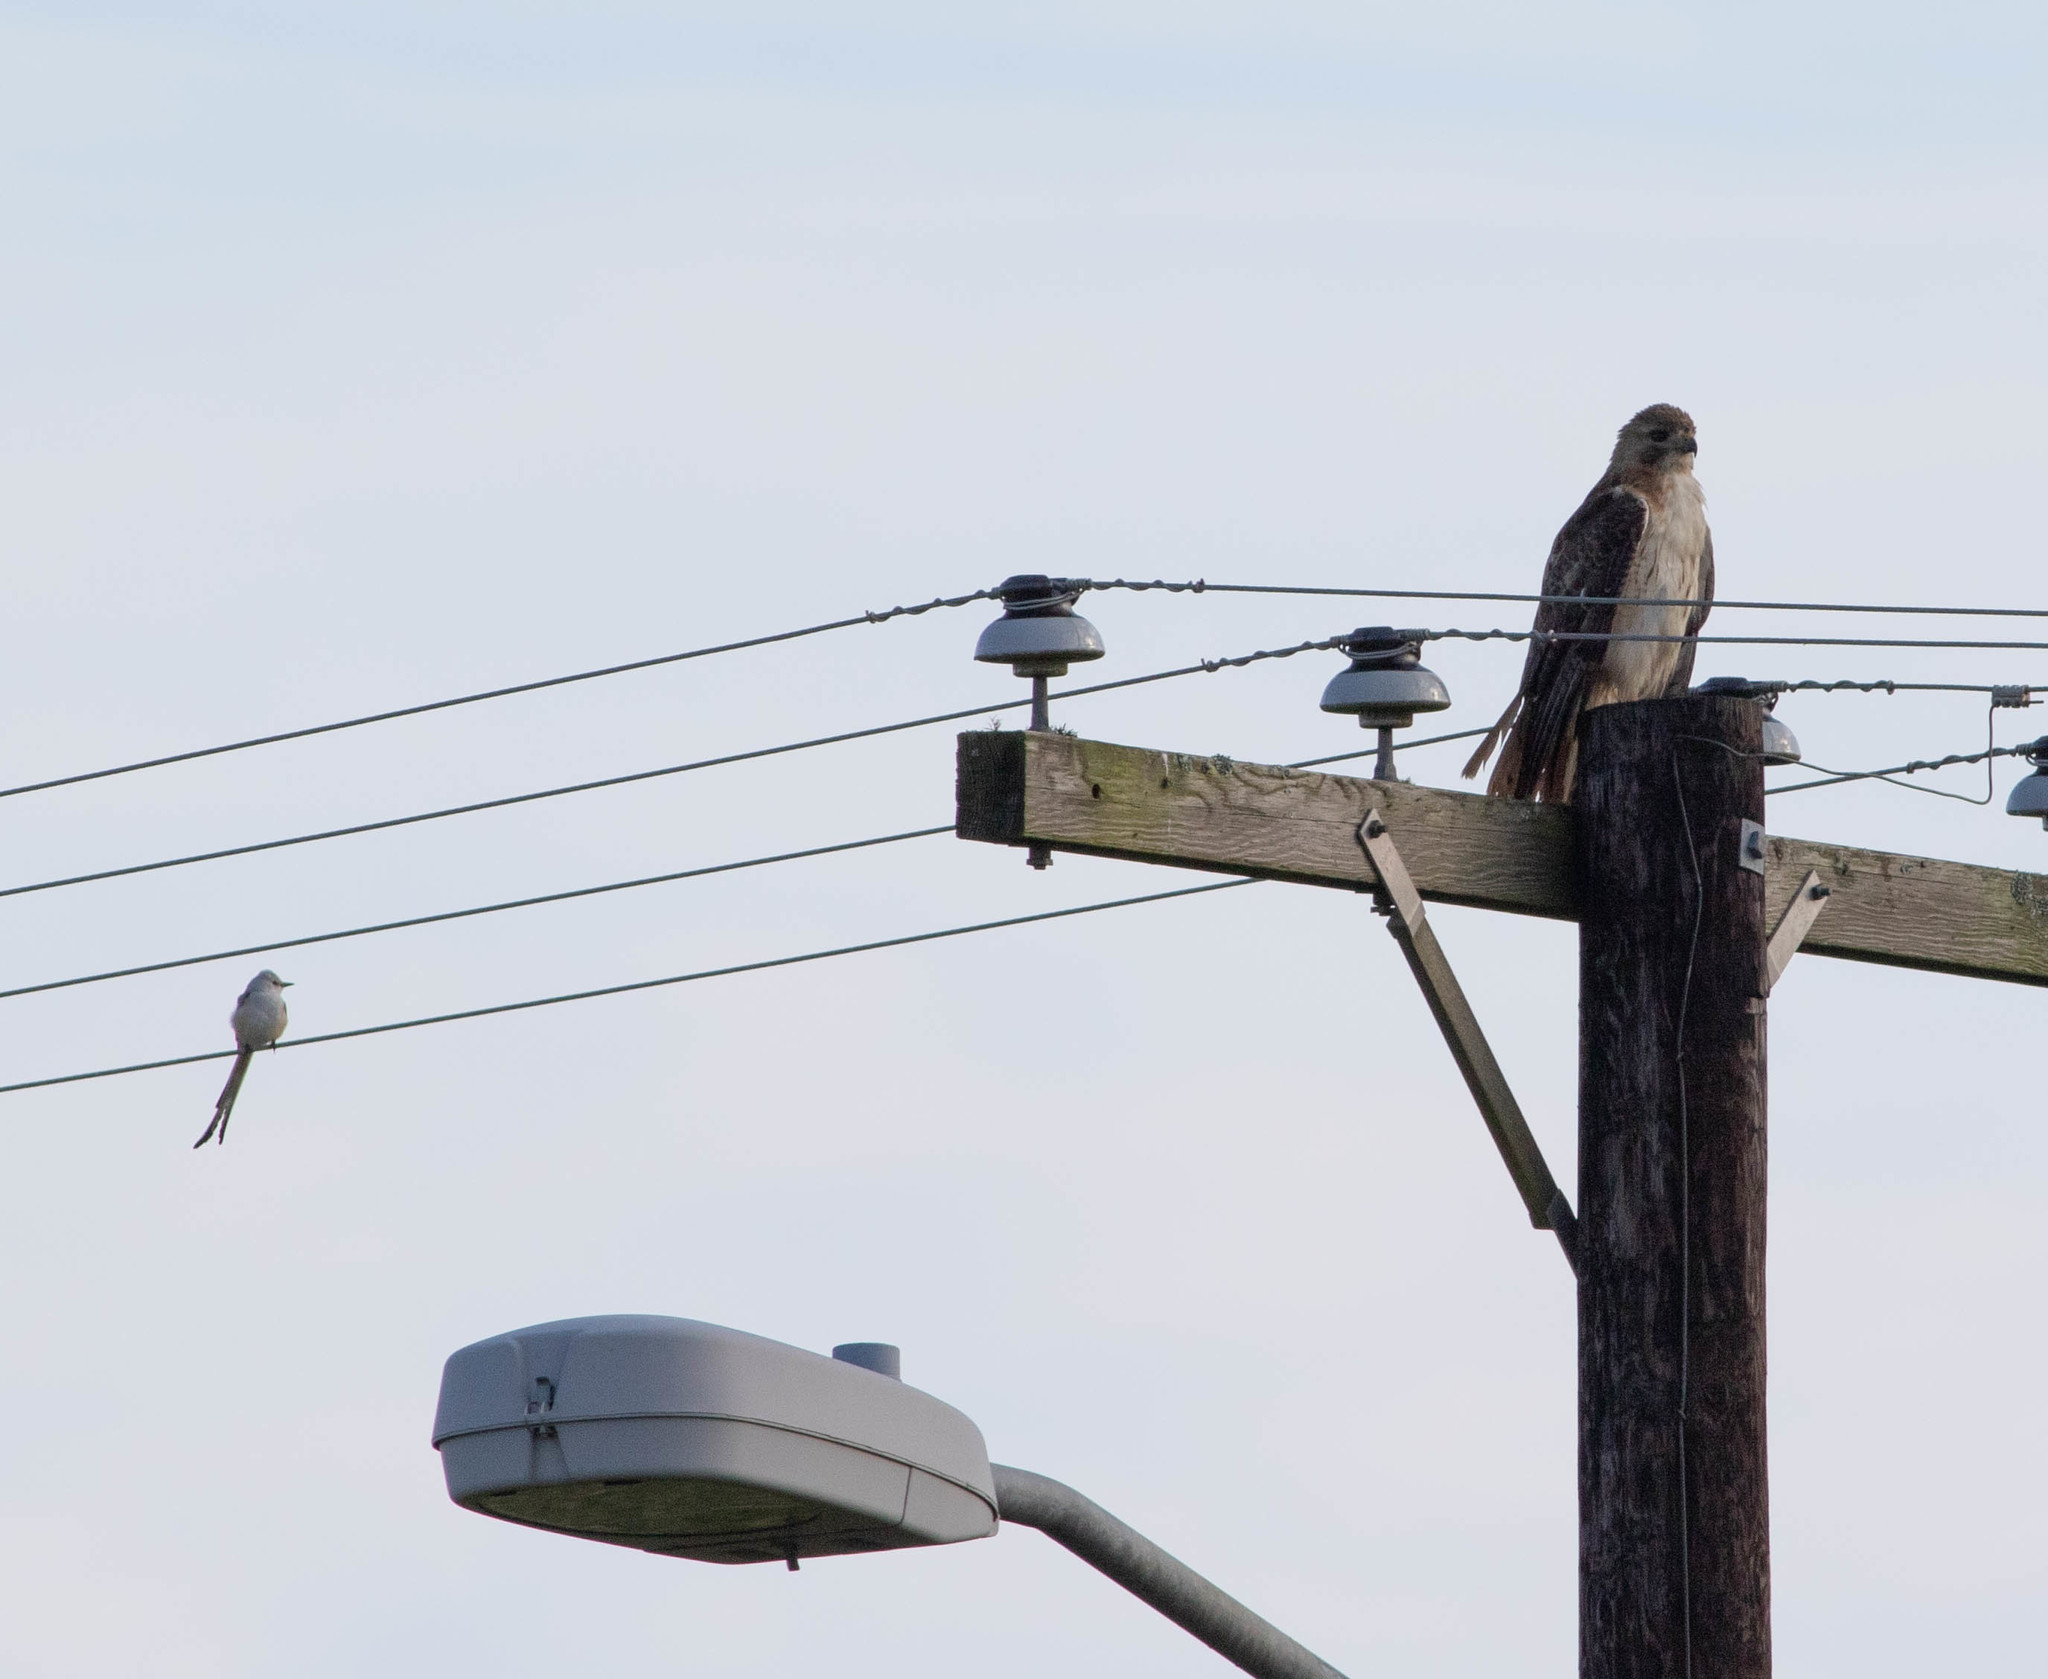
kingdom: Animalia
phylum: Chordata
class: Aves
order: Accipitriformes
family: Accipitridae
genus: Buteo
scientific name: Buteo jamaicensis
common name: Red-tailed hawk
